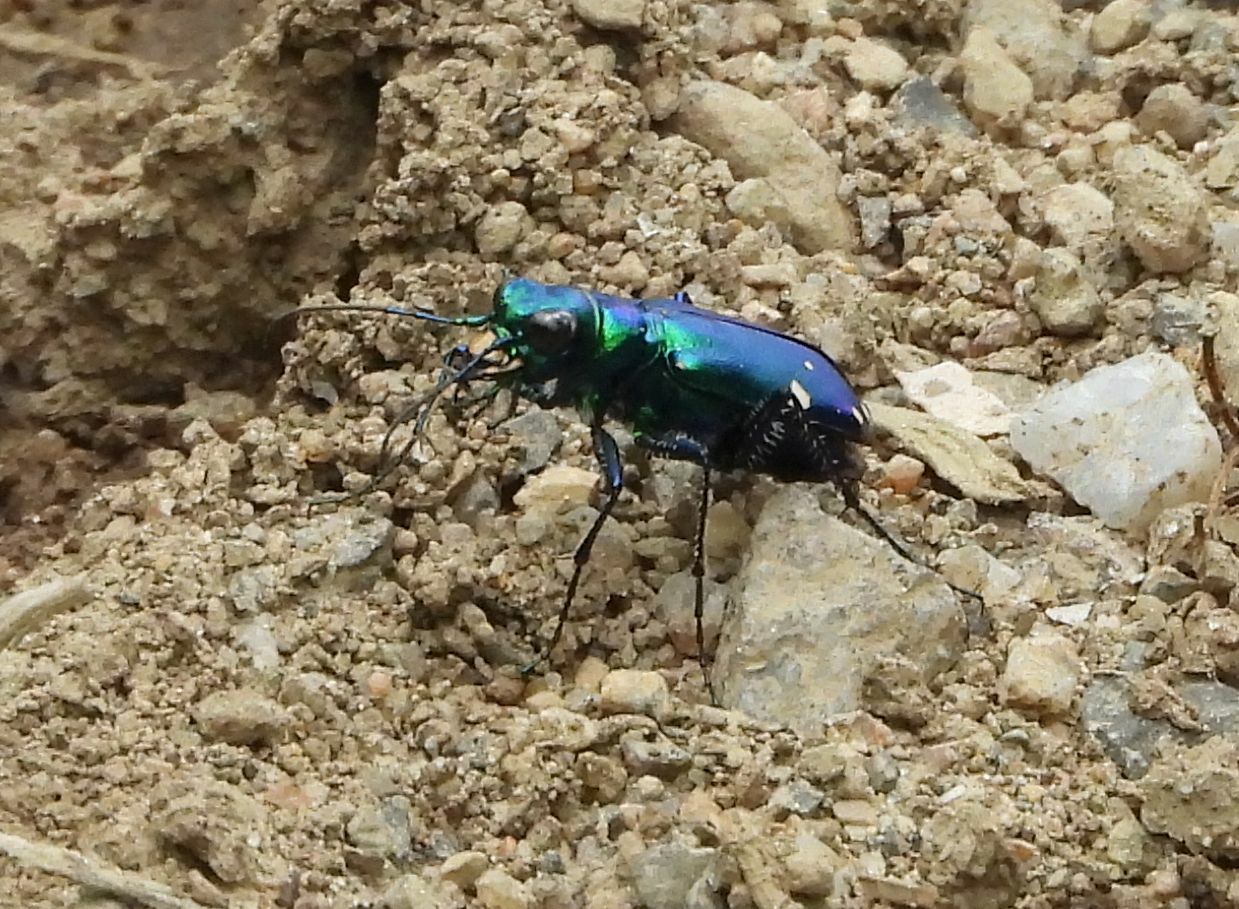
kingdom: Animalia
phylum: Arthropoda
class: Insecta
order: Coleoptera
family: Carabidae
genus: Cicindela
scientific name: Cicindela sexguttata
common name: Six-spotted tiger beetle
